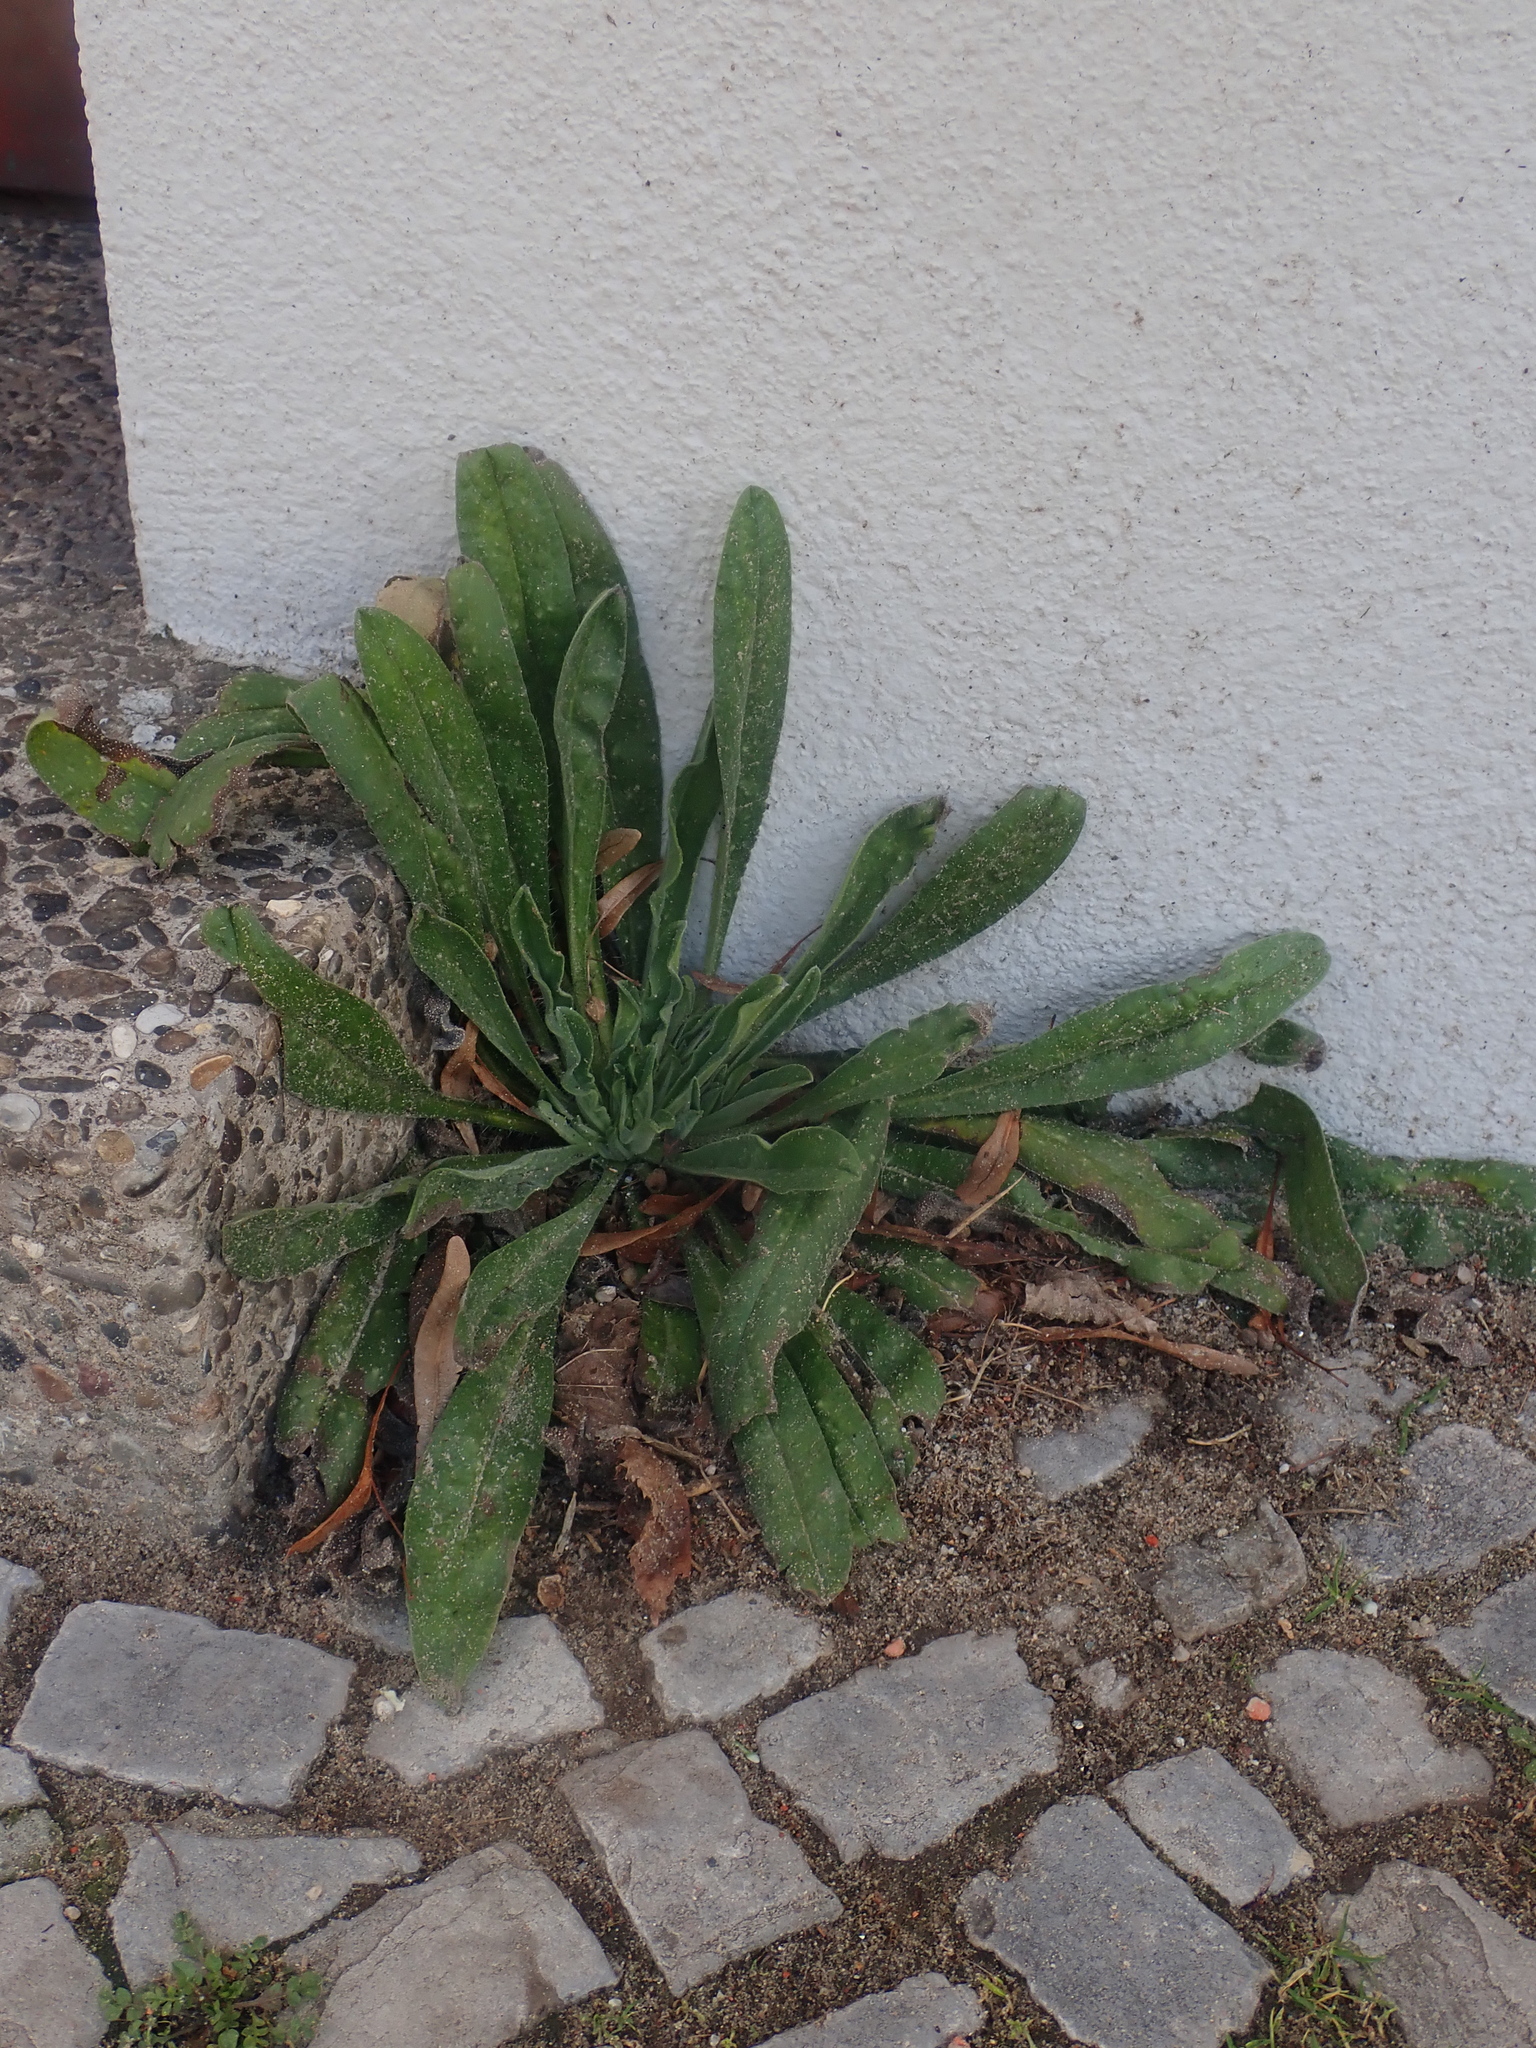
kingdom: Plantae
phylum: Tracheophyta
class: Magnoliopsida
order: Boraginales
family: Boraginaceae
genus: Echium
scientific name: Echium vulgare
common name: Common viper's bugloss
